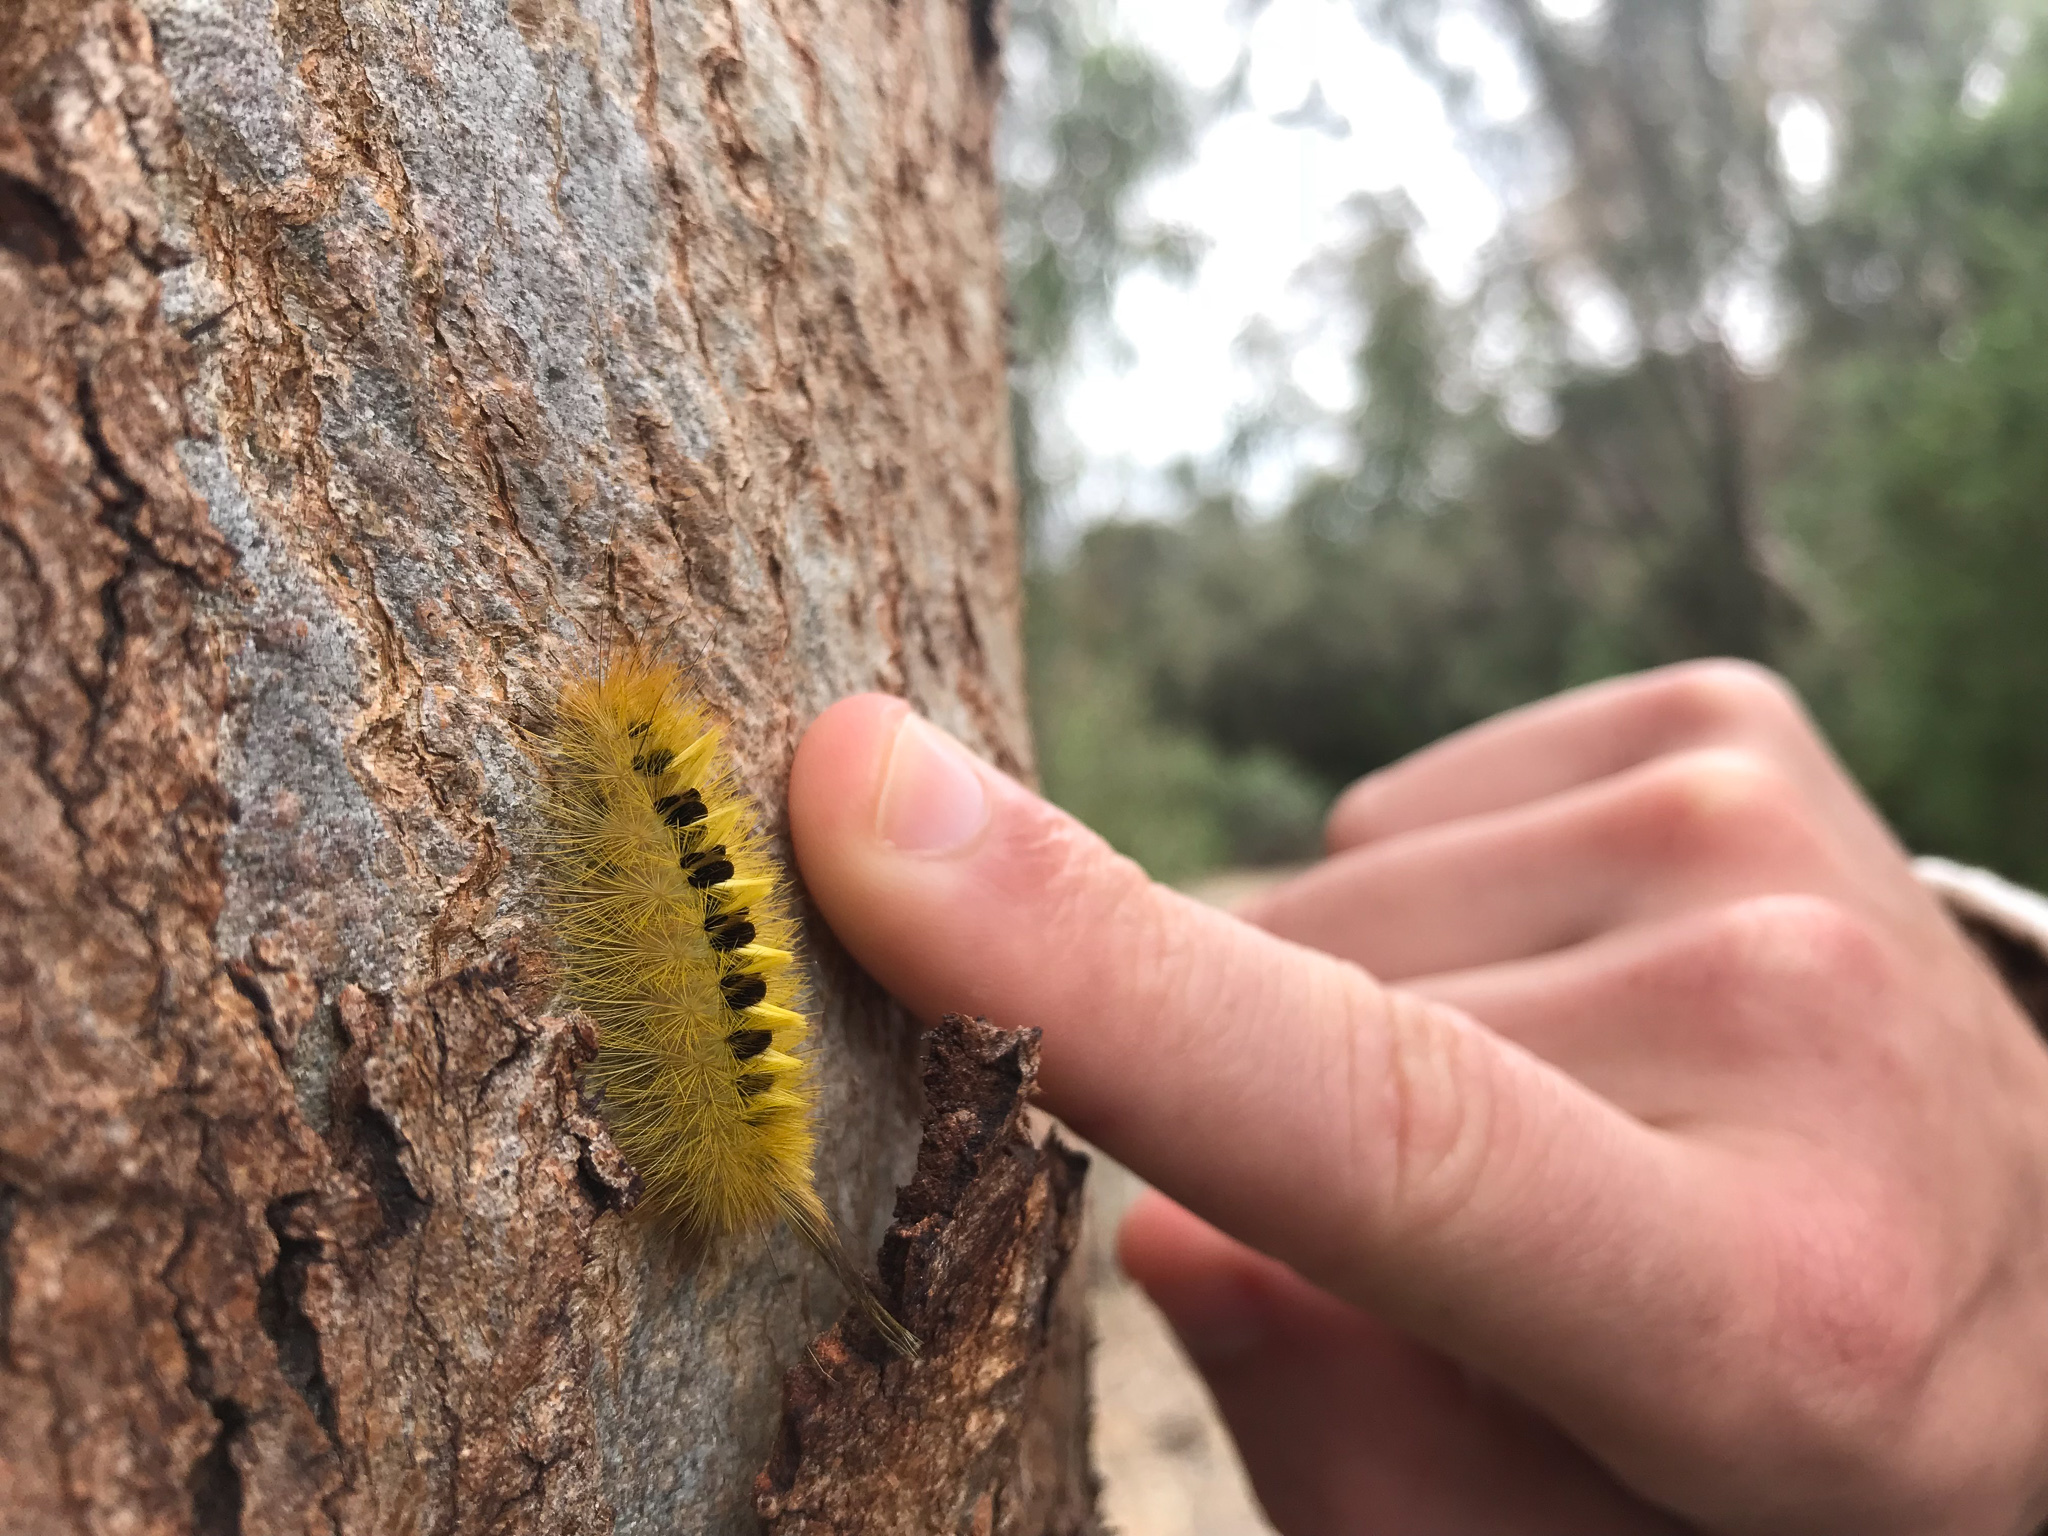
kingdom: Animalia
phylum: Arthropoda
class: Insecta
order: Lepidoptera
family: Notodontidae
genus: Trichiocercus
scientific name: Trichiocercus sparshalli
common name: Long-tailed satin
